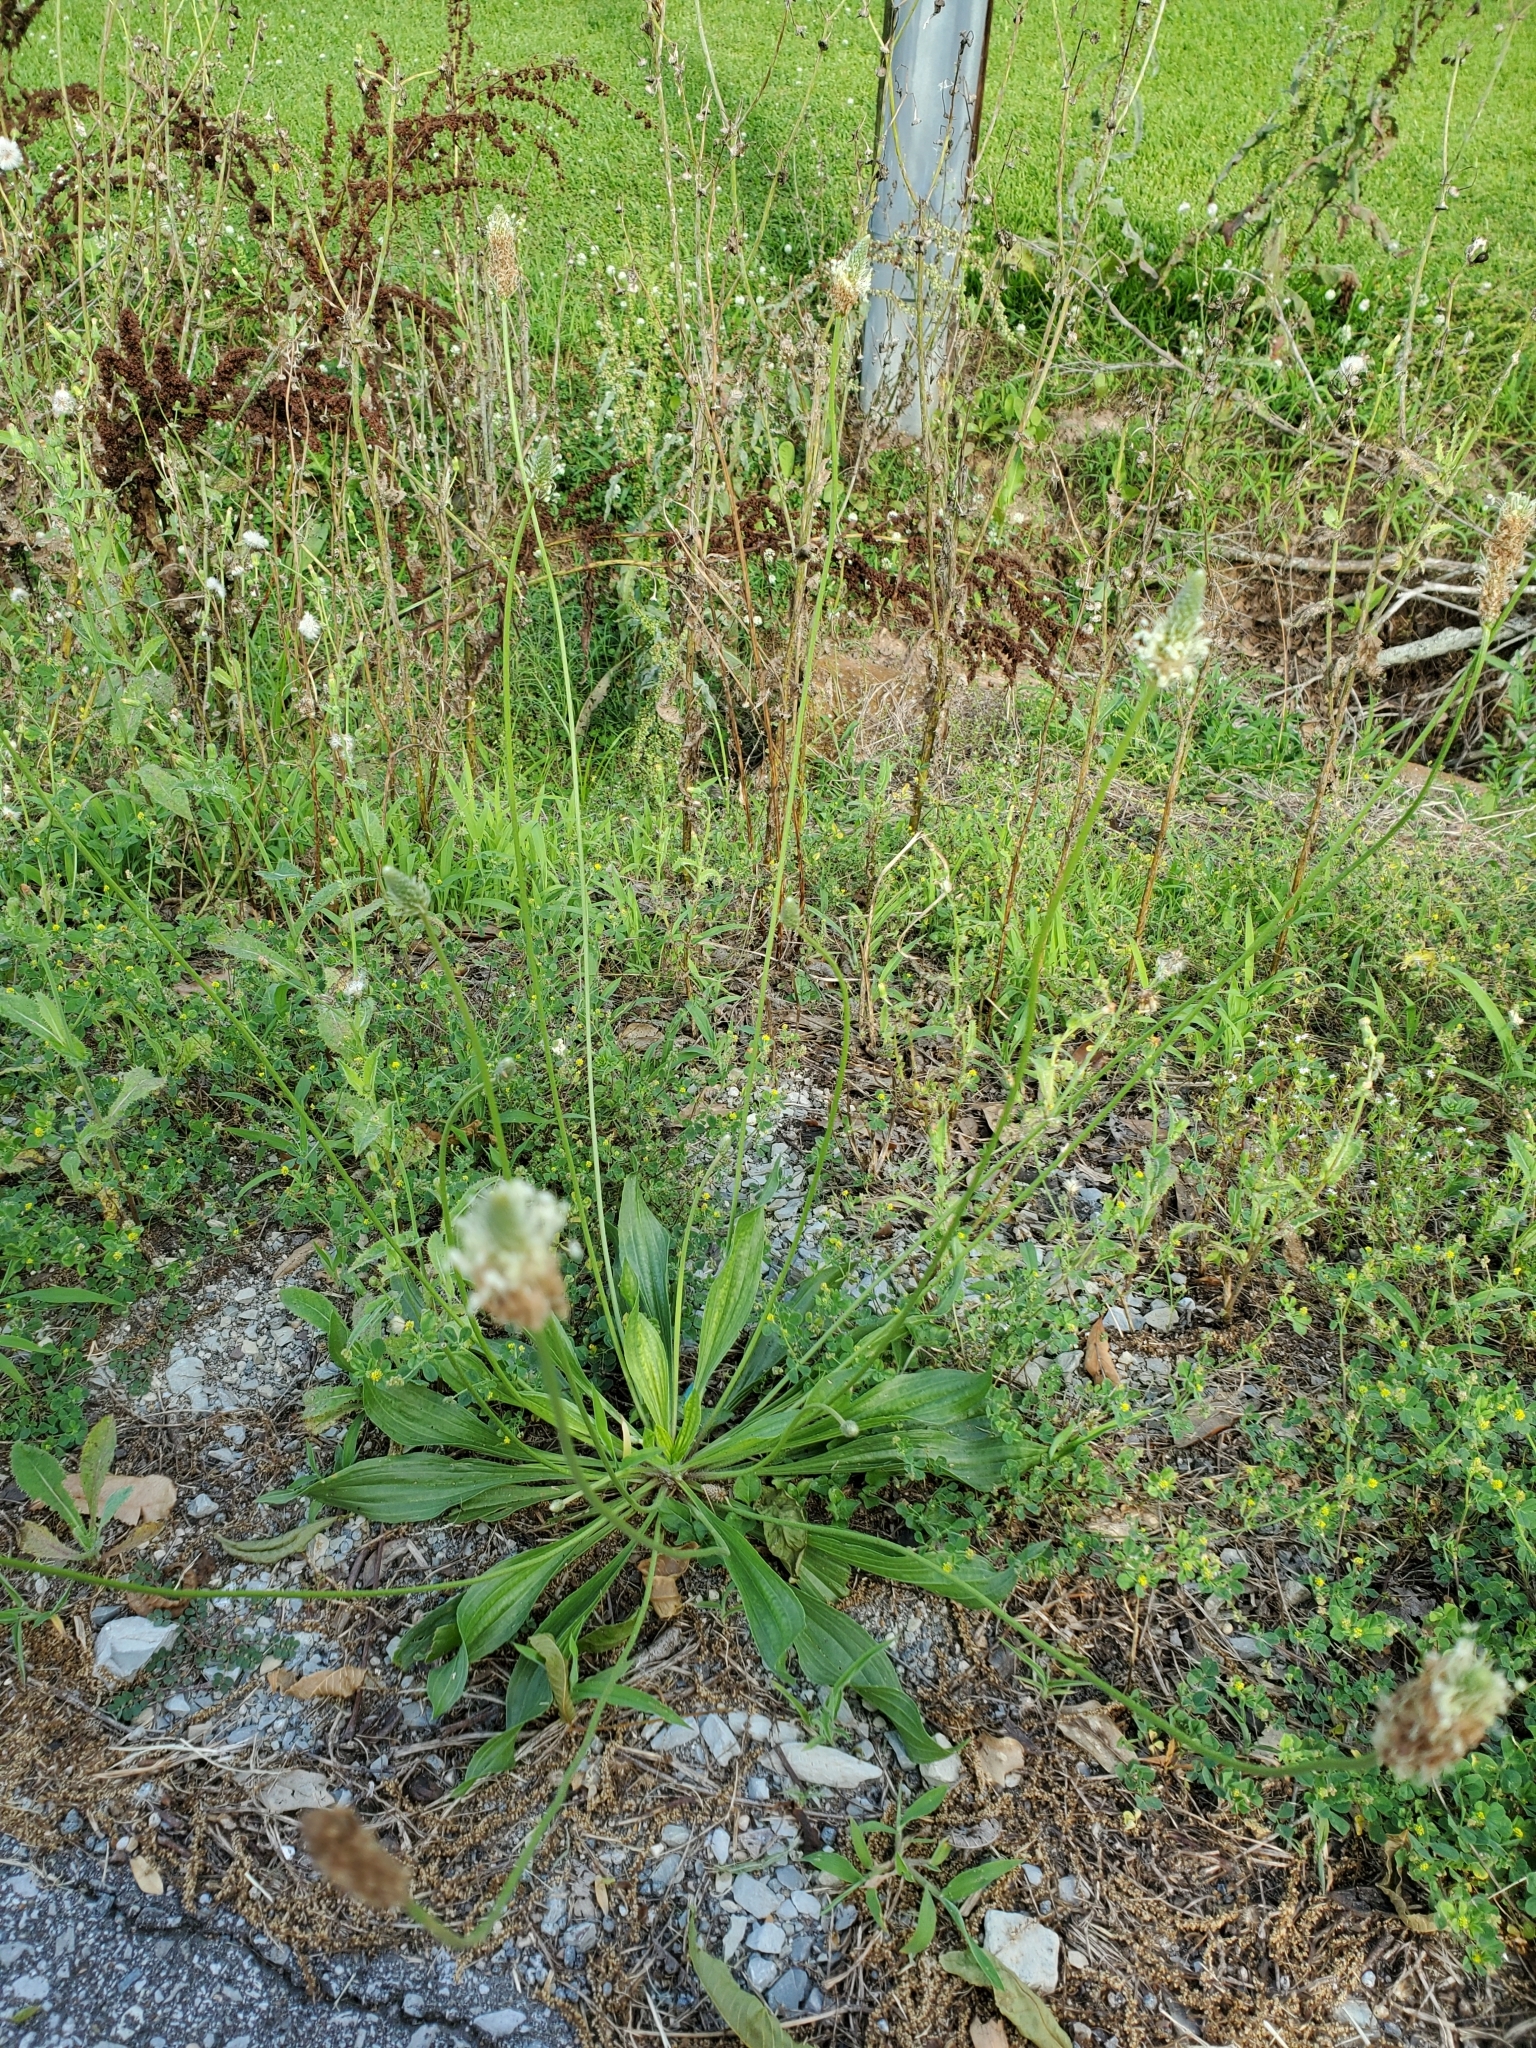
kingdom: Plantae
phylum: Tracheophyta
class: Magnoliopsida
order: Lamiales
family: Plantaginaceae
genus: Plantago
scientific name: Plantago lanceolata
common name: Ribwort plantain
